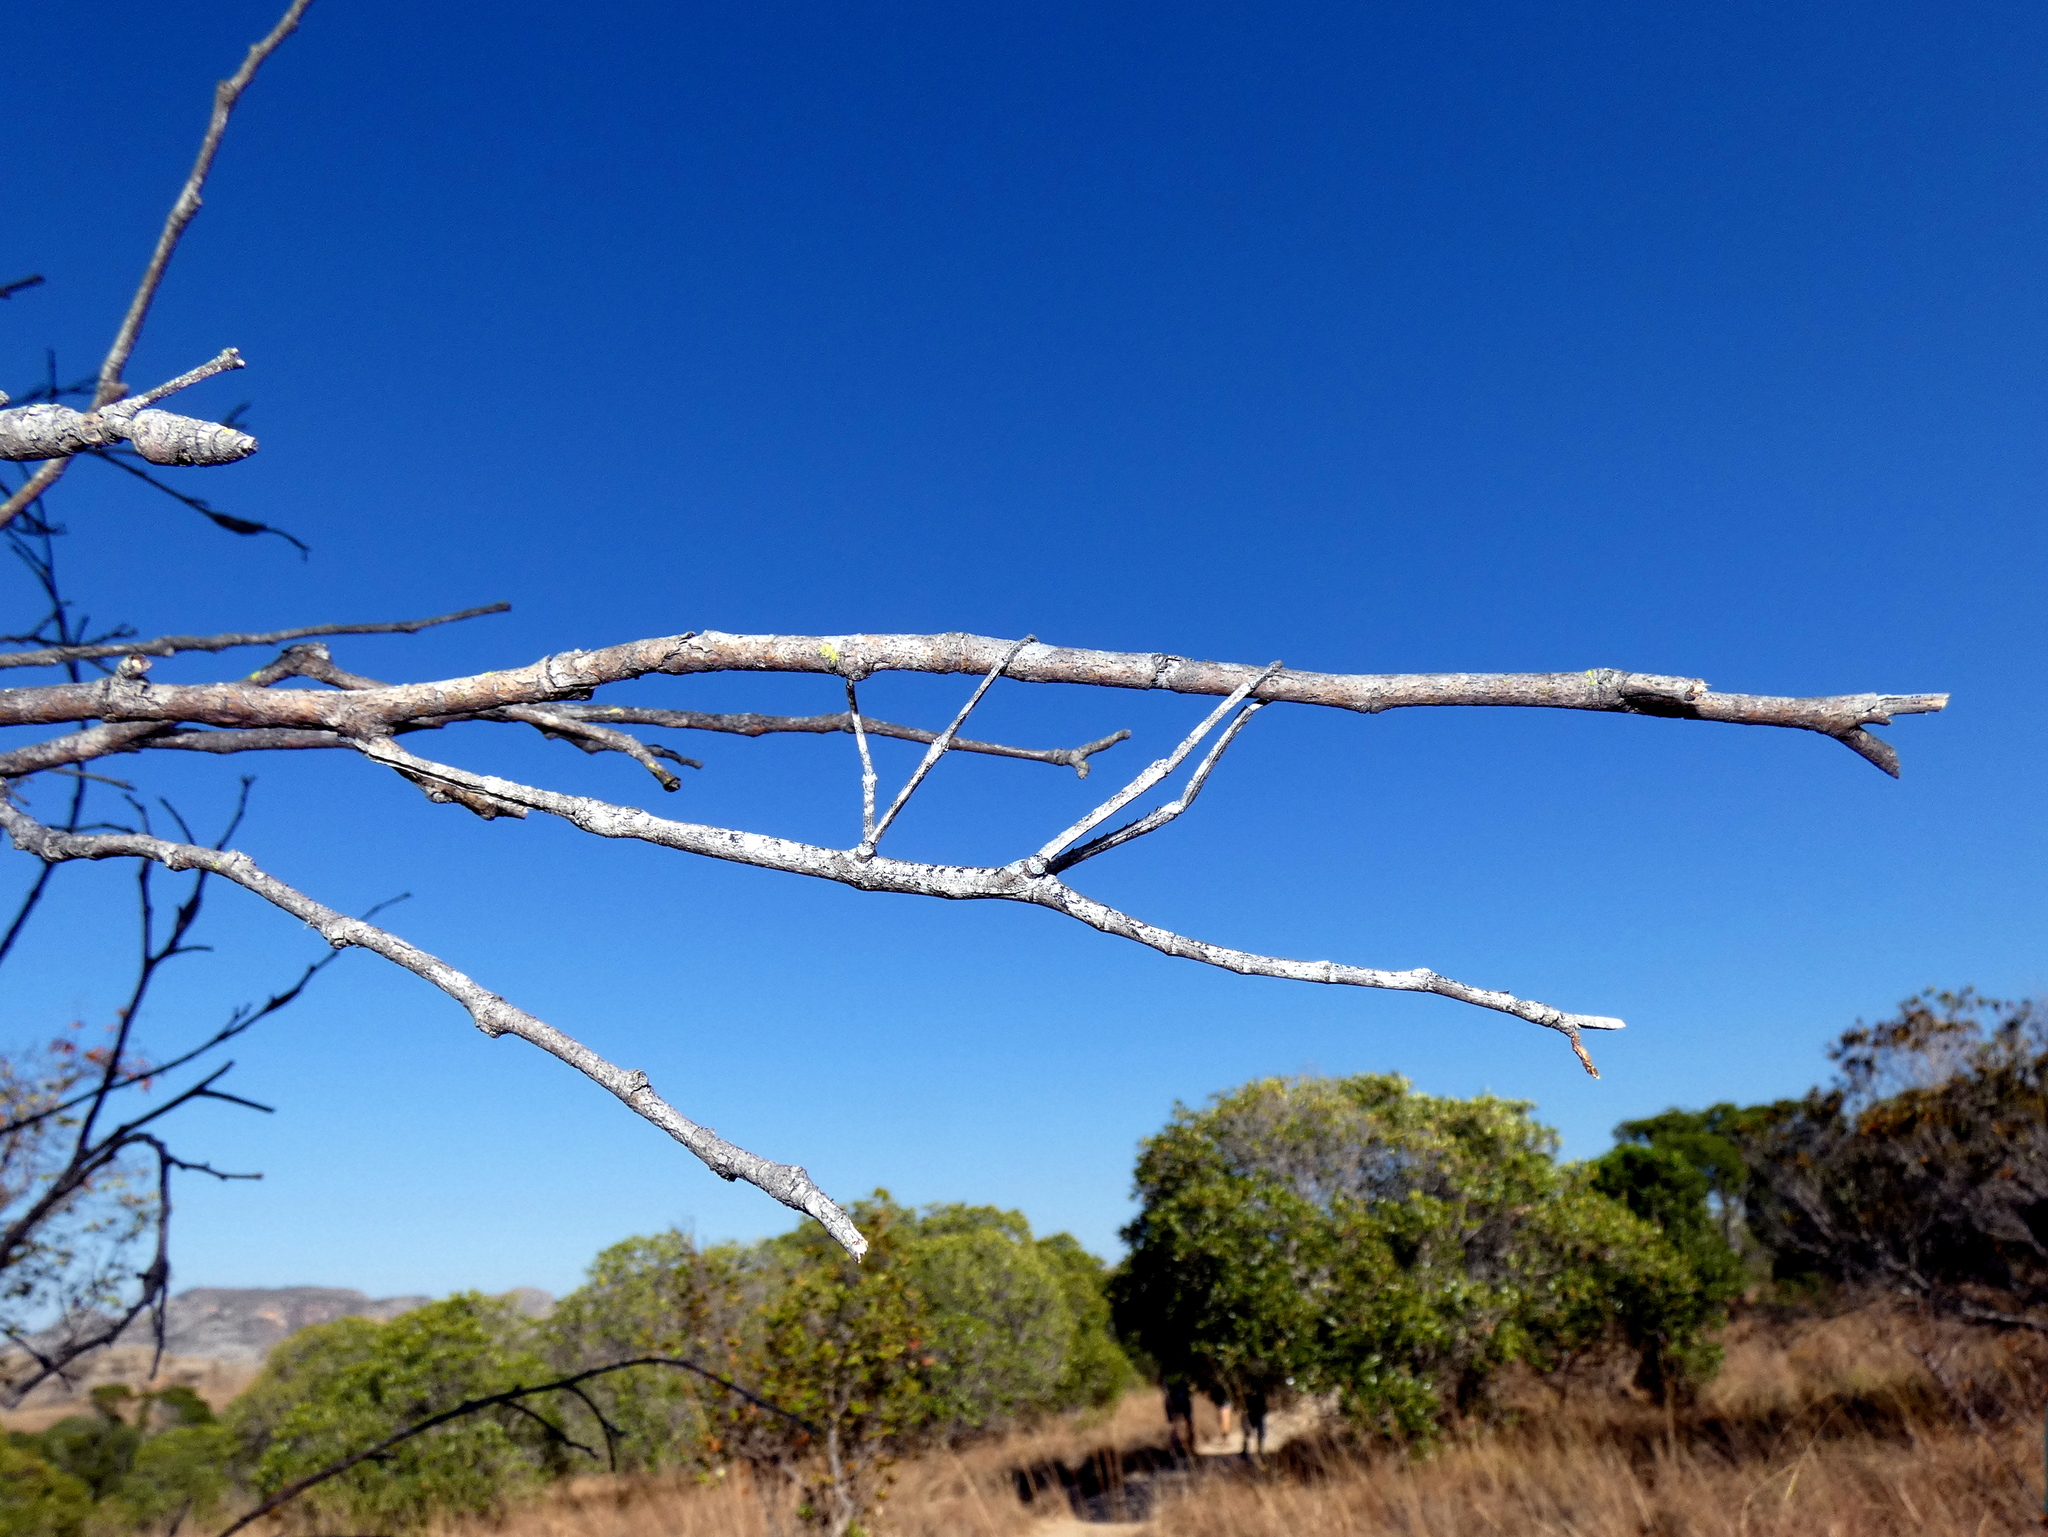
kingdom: Animalia
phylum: Arthropoda
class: Insecta
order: Phasmida
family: Phasmatidae
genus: Achrioptera
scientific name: Achrioptera impennis
